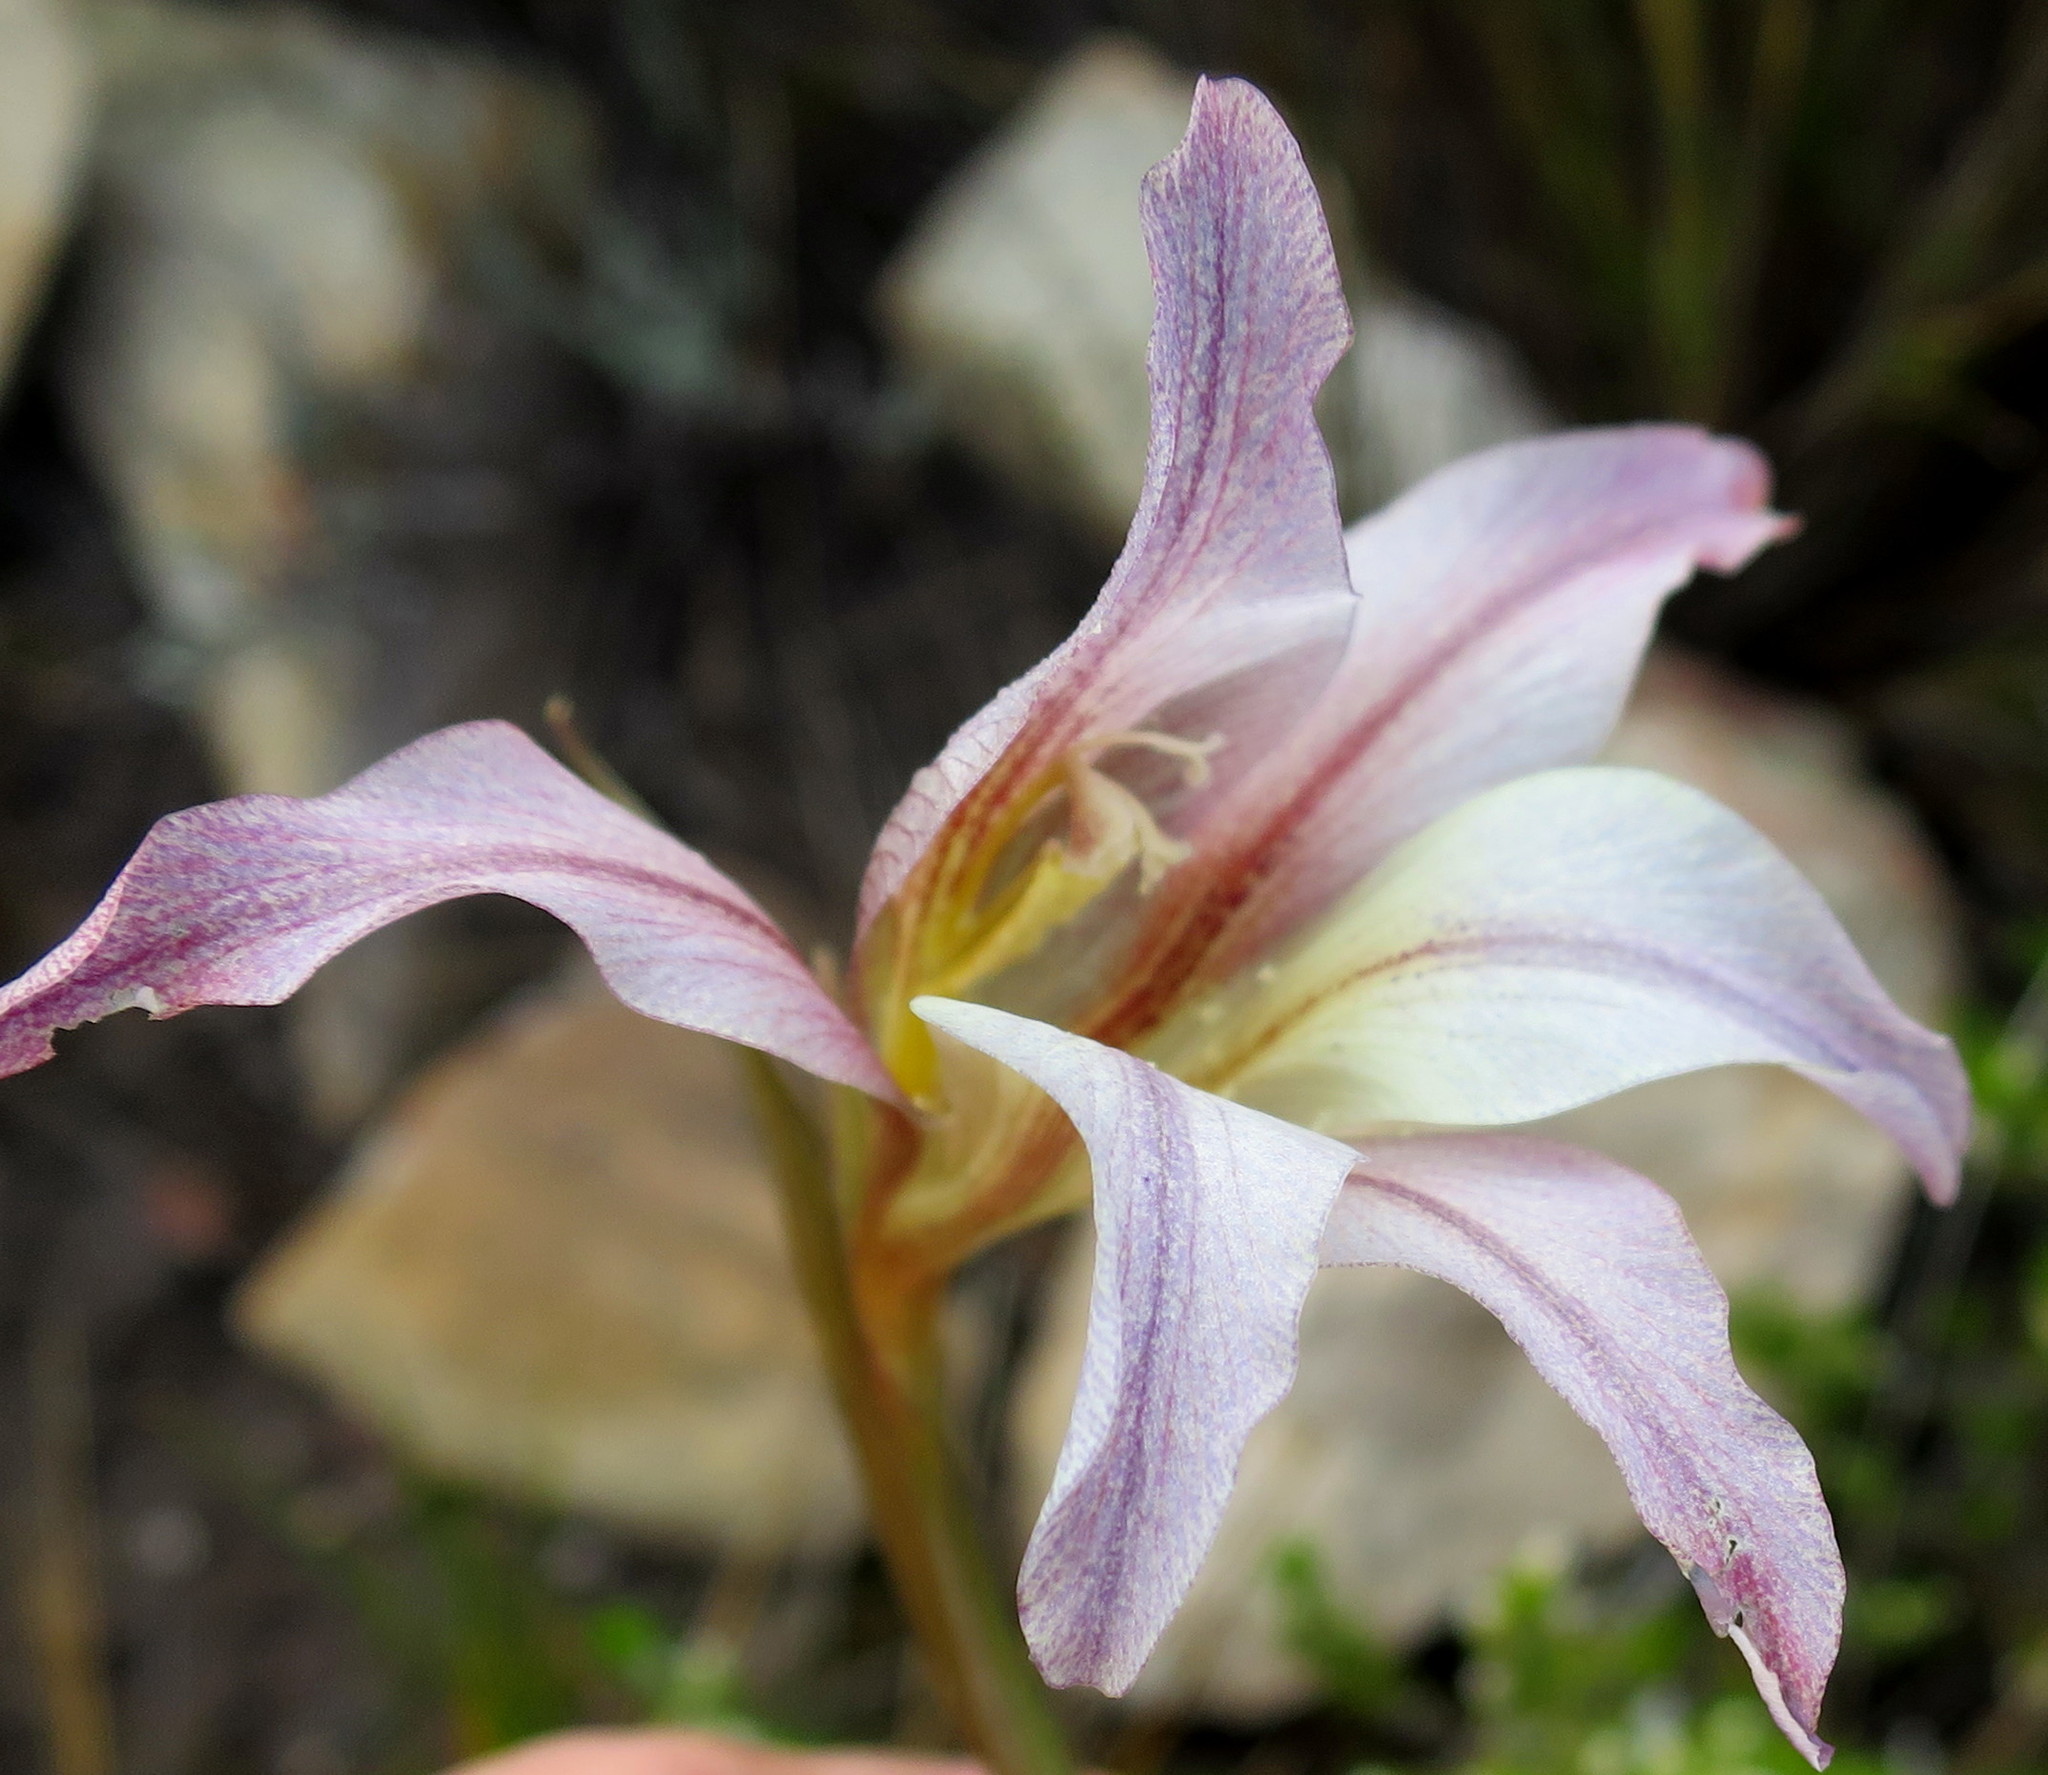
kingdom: Plantae
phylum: Tracheophyta
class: Liliopsida
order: Asparagales
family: Iridaceae
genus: Gladiolus
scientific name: Gladiolus liliaceus
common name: Large brown afrikaner
